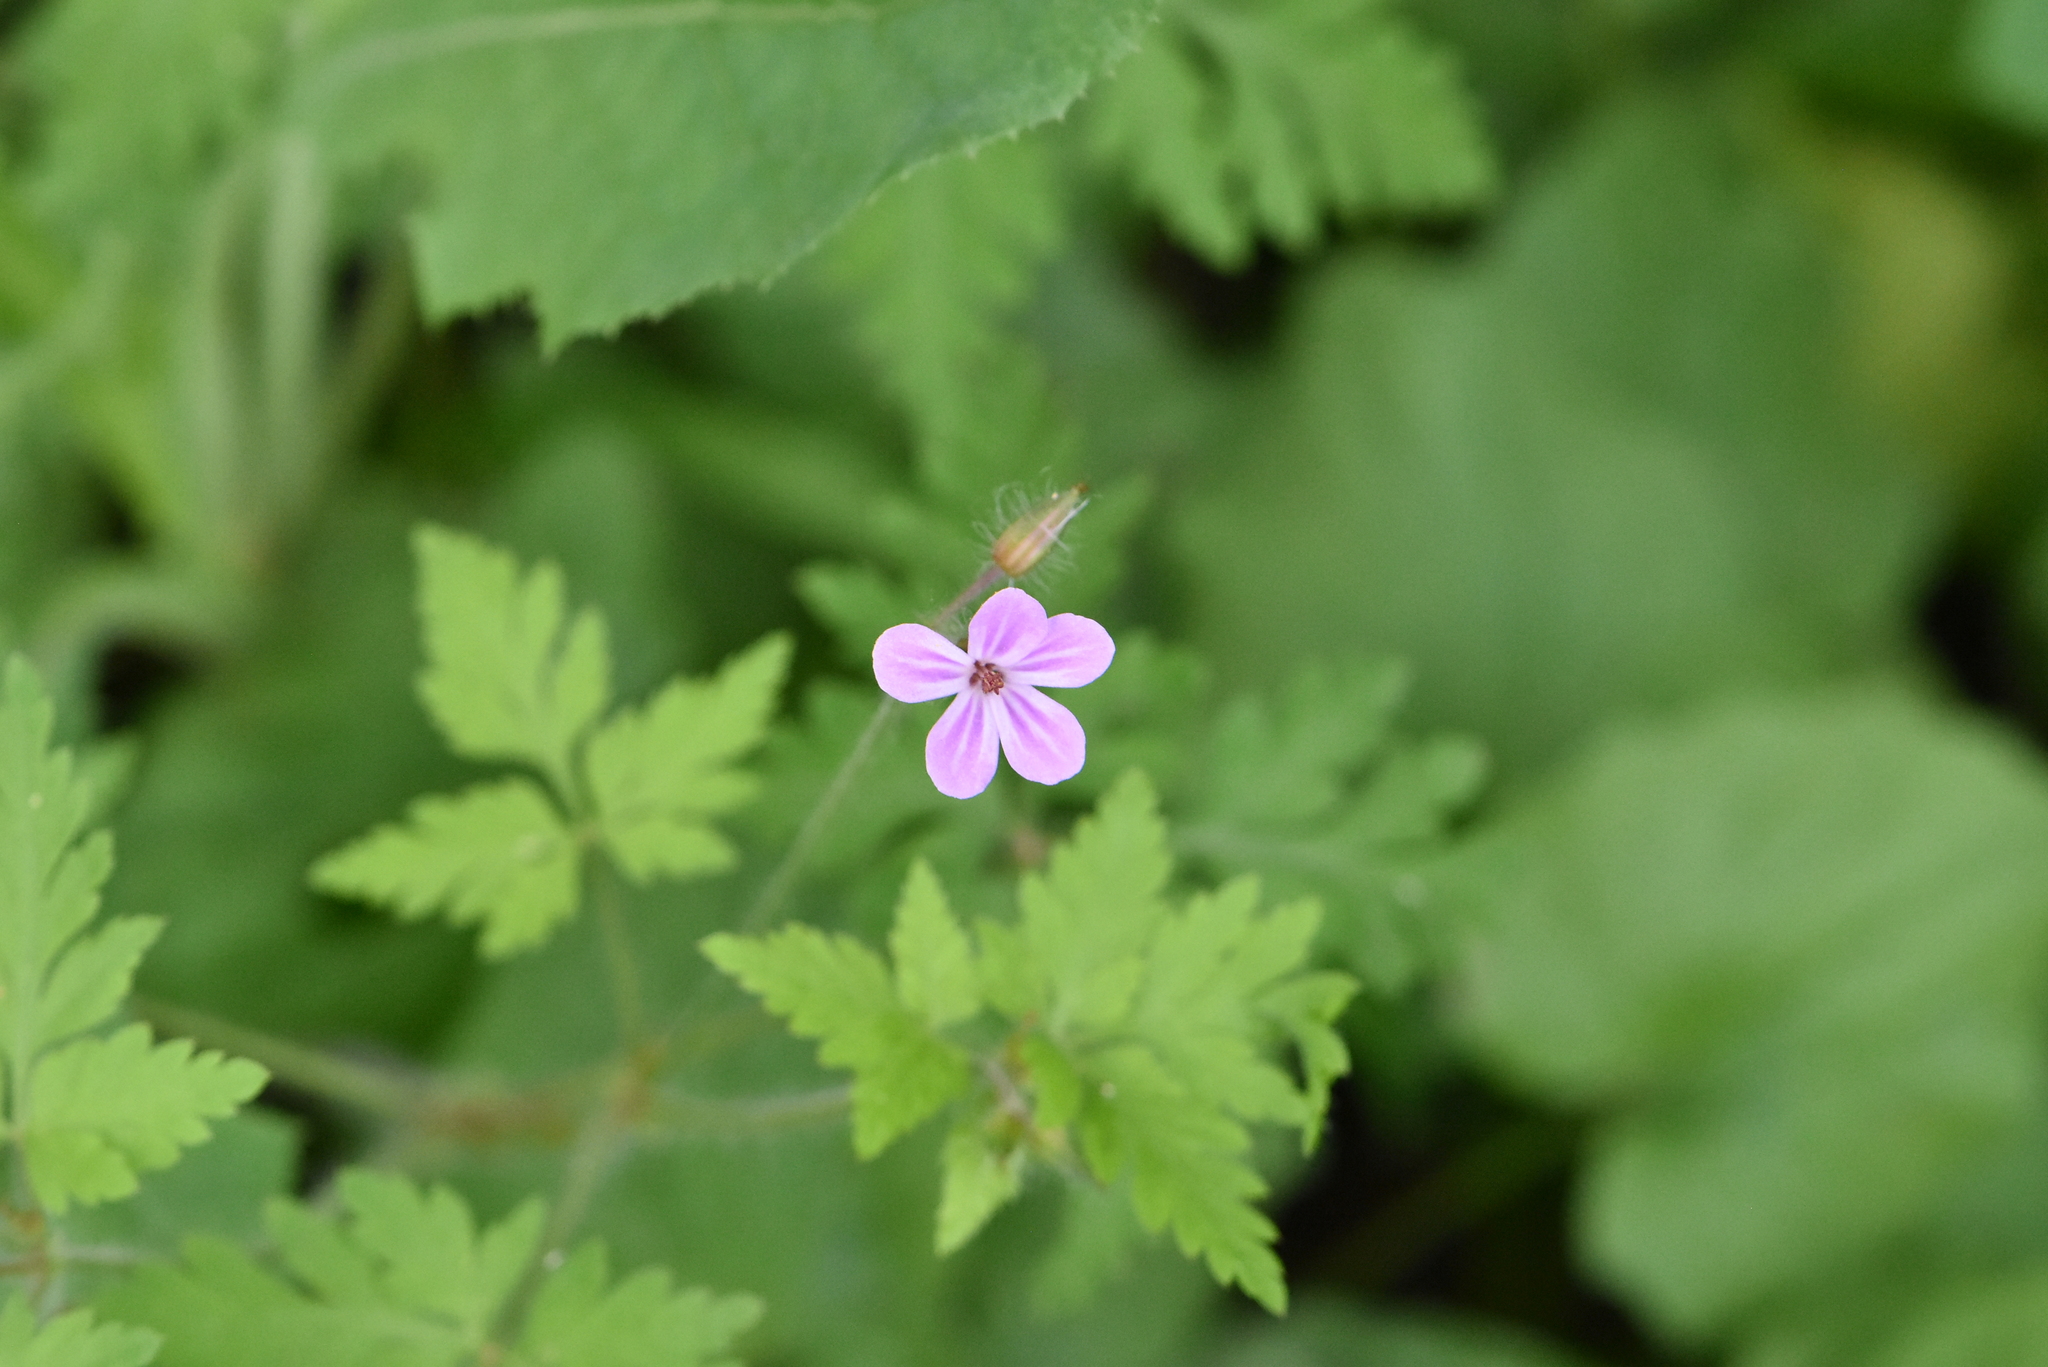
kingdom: Plantae
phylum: Tracheophyta
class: Magnoliopsida
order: Geraniales
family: Geraniaceae
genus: Geranium
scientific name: Geranium robertianum
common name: Herb-robert
